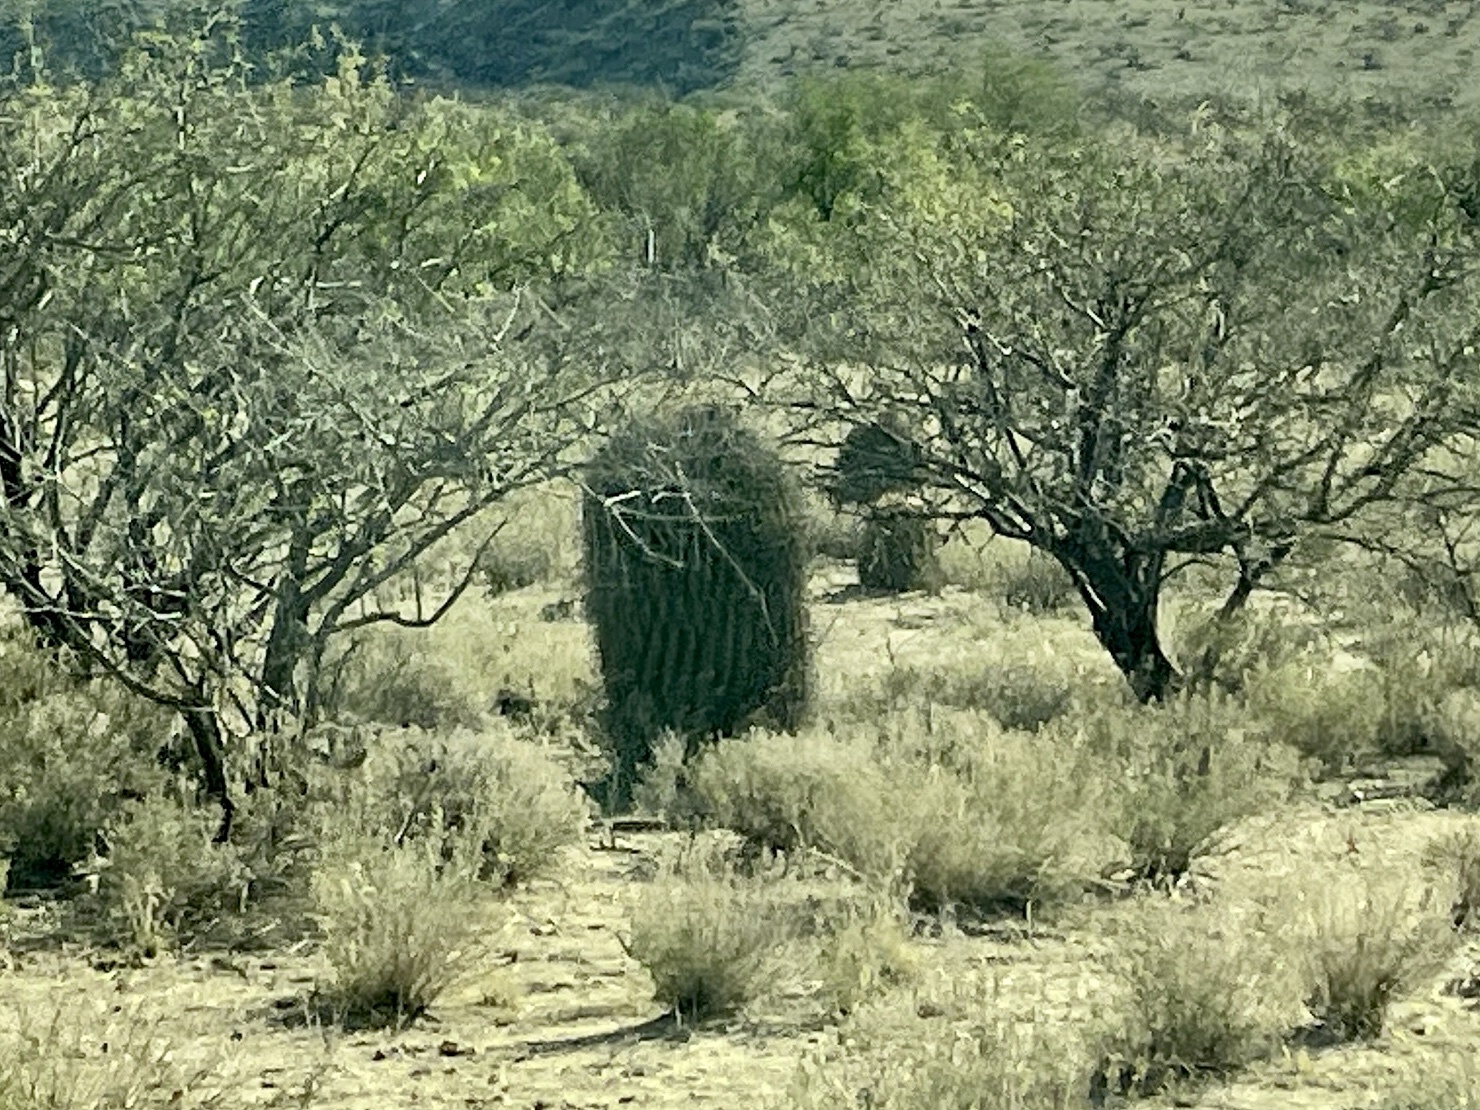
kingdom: Plantae
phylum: Tracheophyta
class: Magnoliopsida
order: Caryophyllales
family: Cactaceae
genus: Ferocactus
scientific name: Ferocactus wislizeni
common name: Candy barrel cactus
